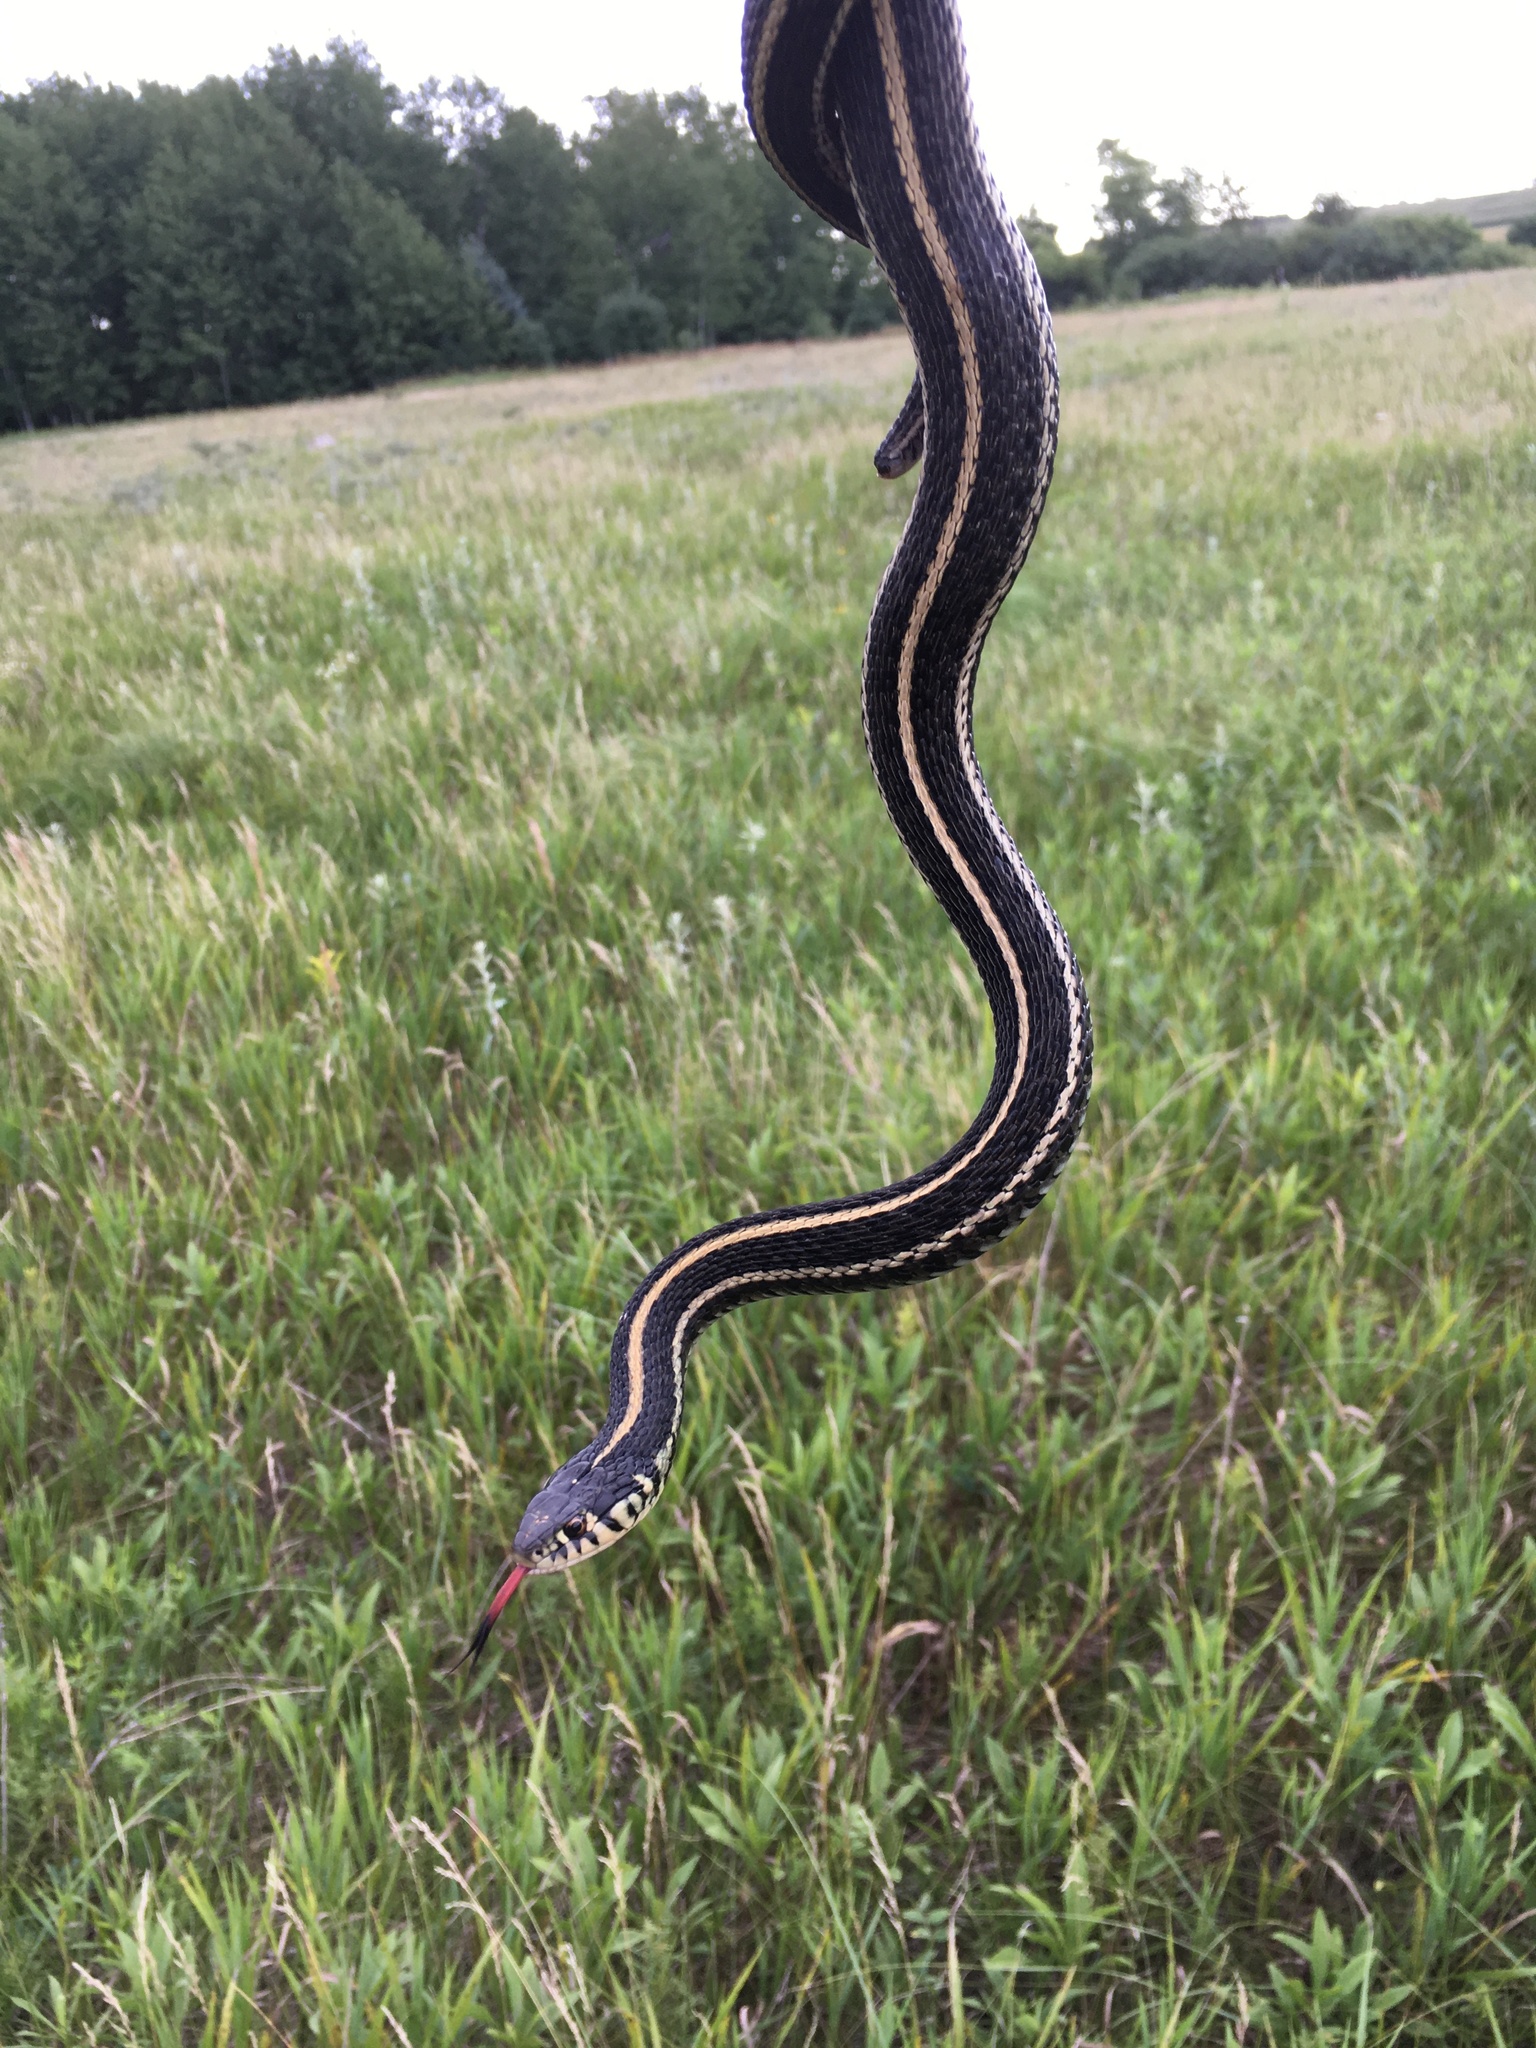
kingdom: Animalia
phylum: Chordata
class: Squamata
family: Colubridae
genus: Thamnophis
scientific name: Thamnophis radix
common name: Plains garter snake
